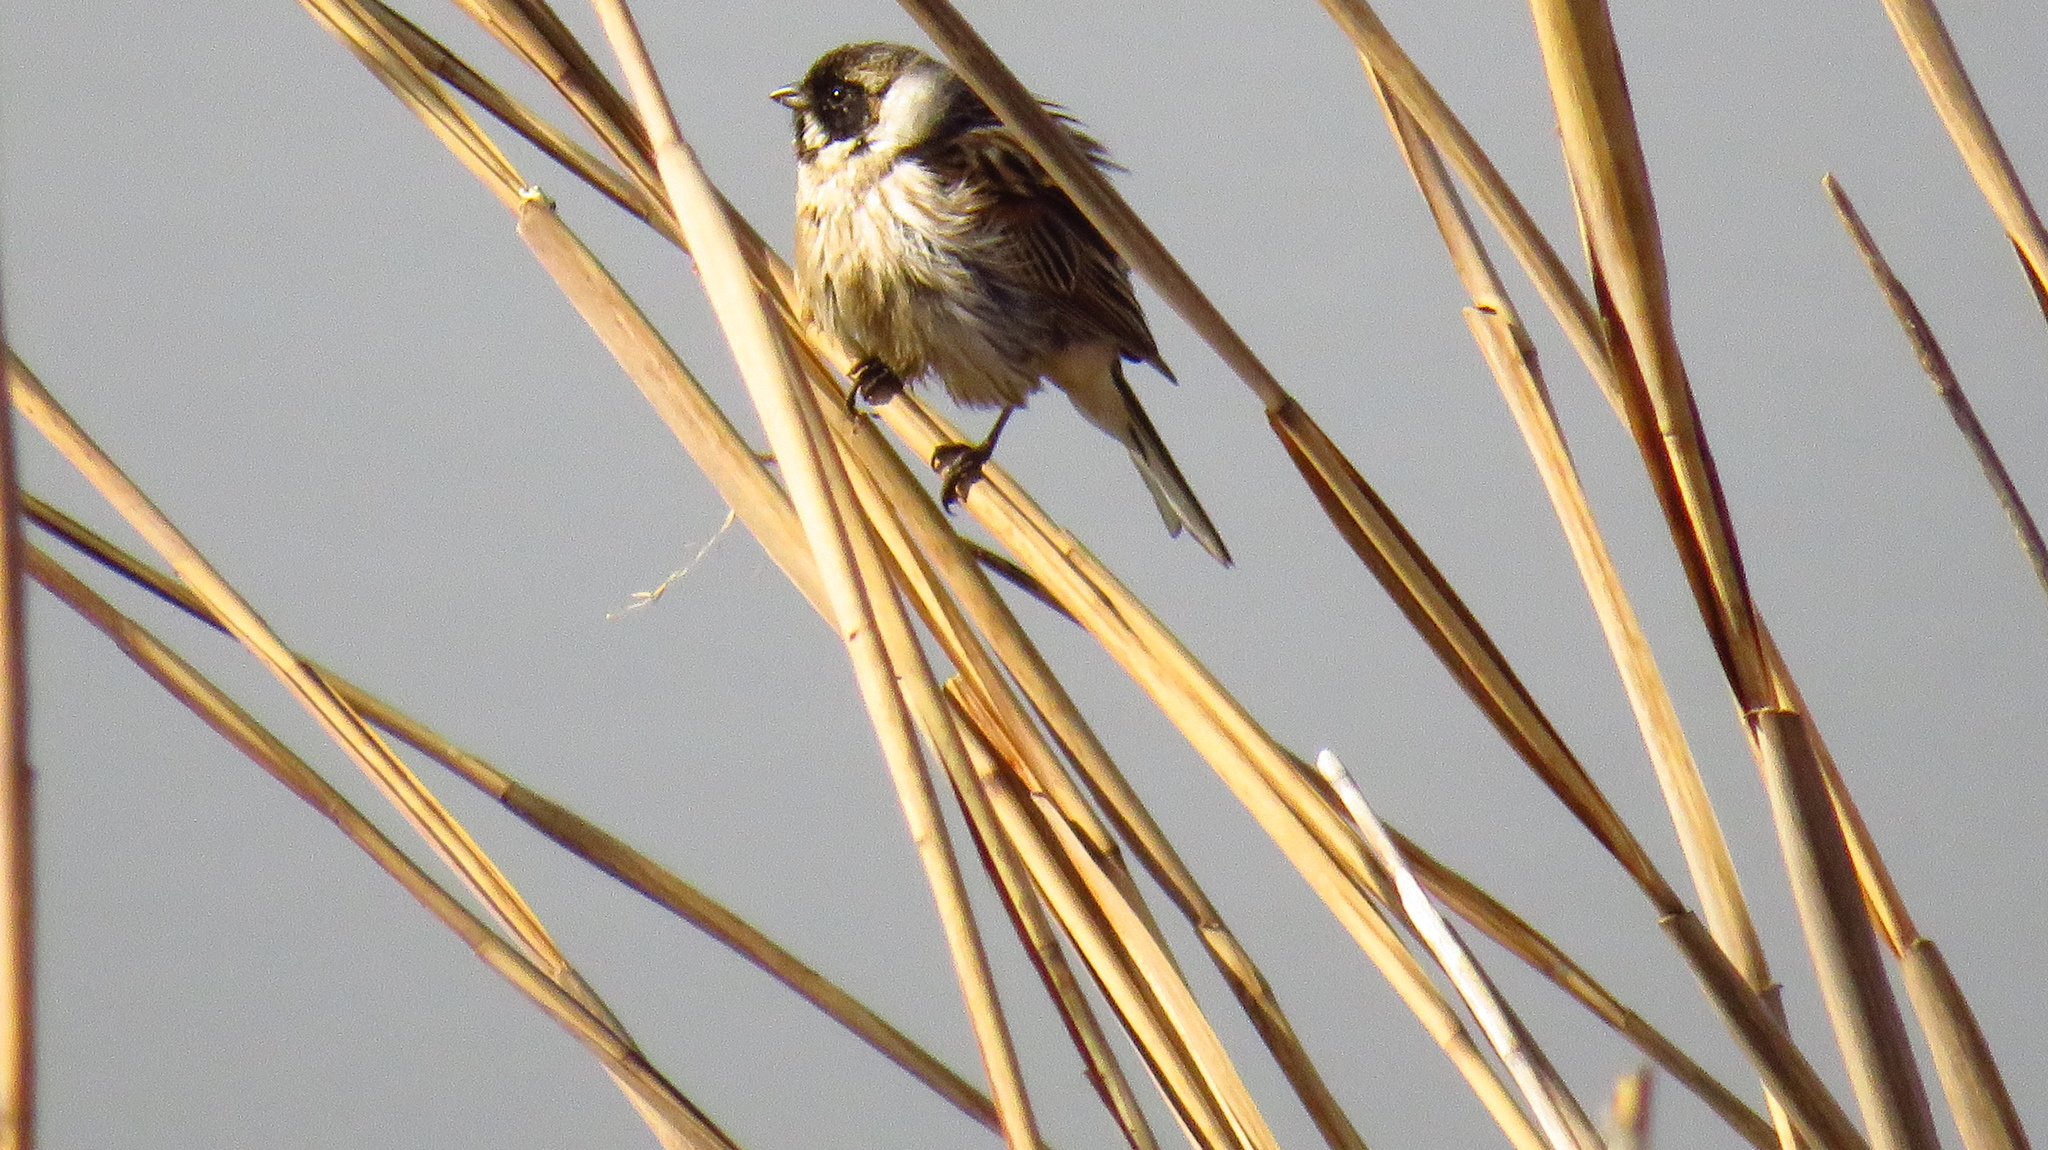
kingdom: Animalia
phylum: Chordata
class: Aves
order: Passeriformes
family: Emberizidae
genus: Emberiza
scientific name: Emberiza schoeniclus
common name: Reed bunting
